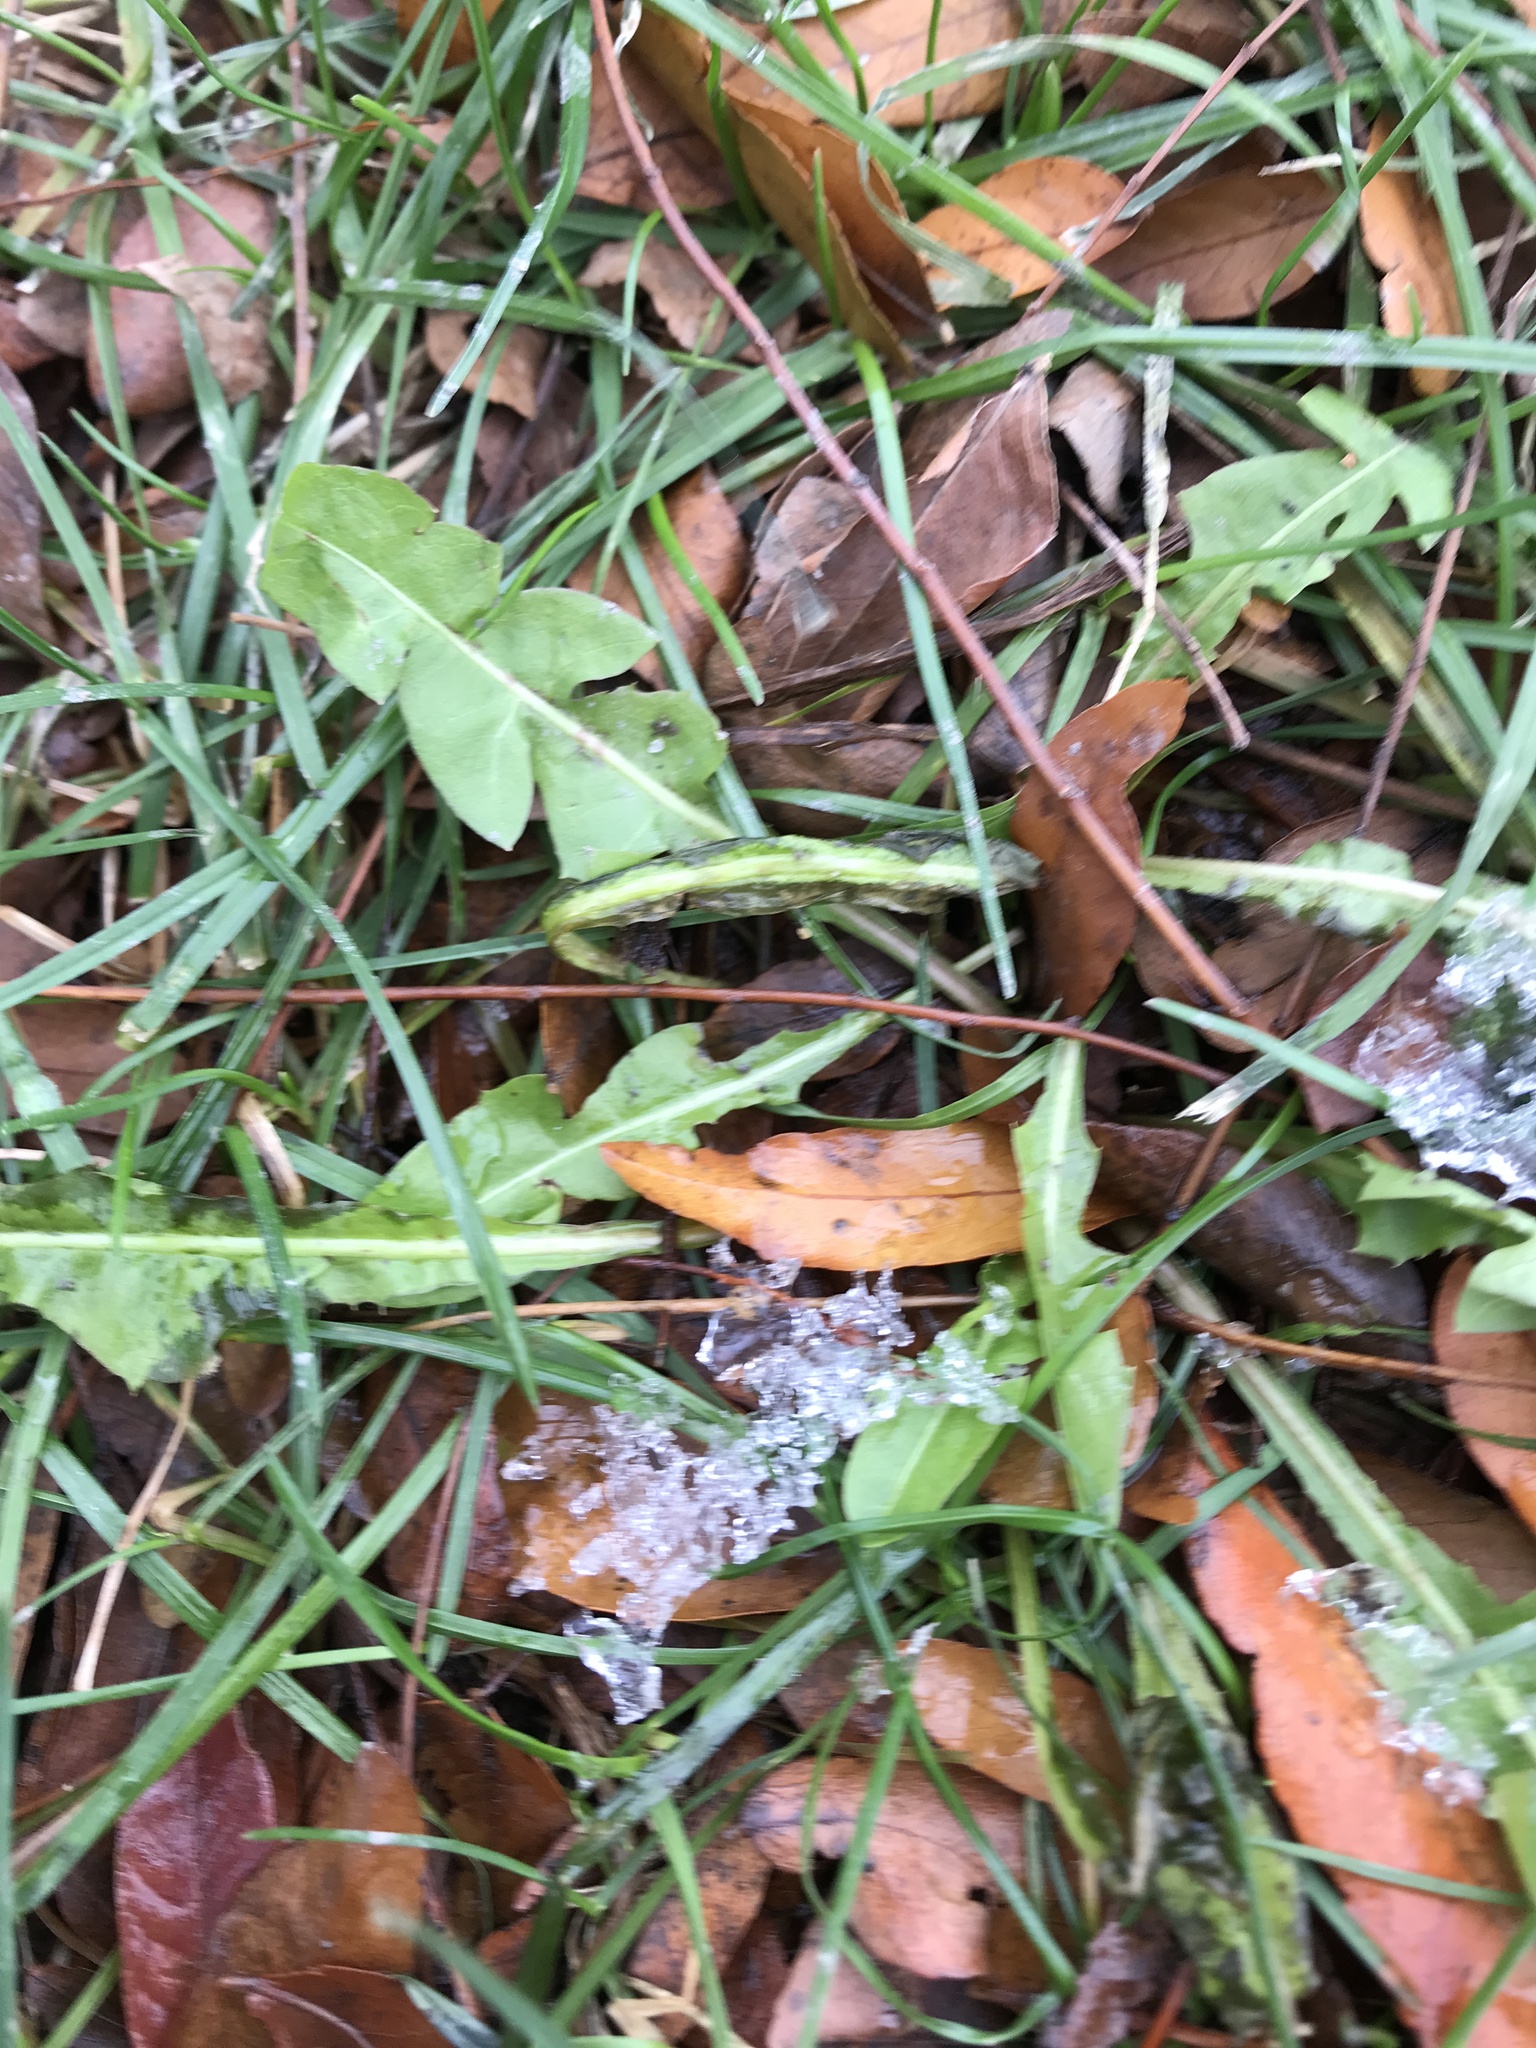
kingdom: Plantae
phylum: Tracheophyta
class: Magnoliopsida
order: Asterales
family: Asteraceae
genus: Taraxacum
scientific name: Taraxacum officinale
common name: Common dandelion
